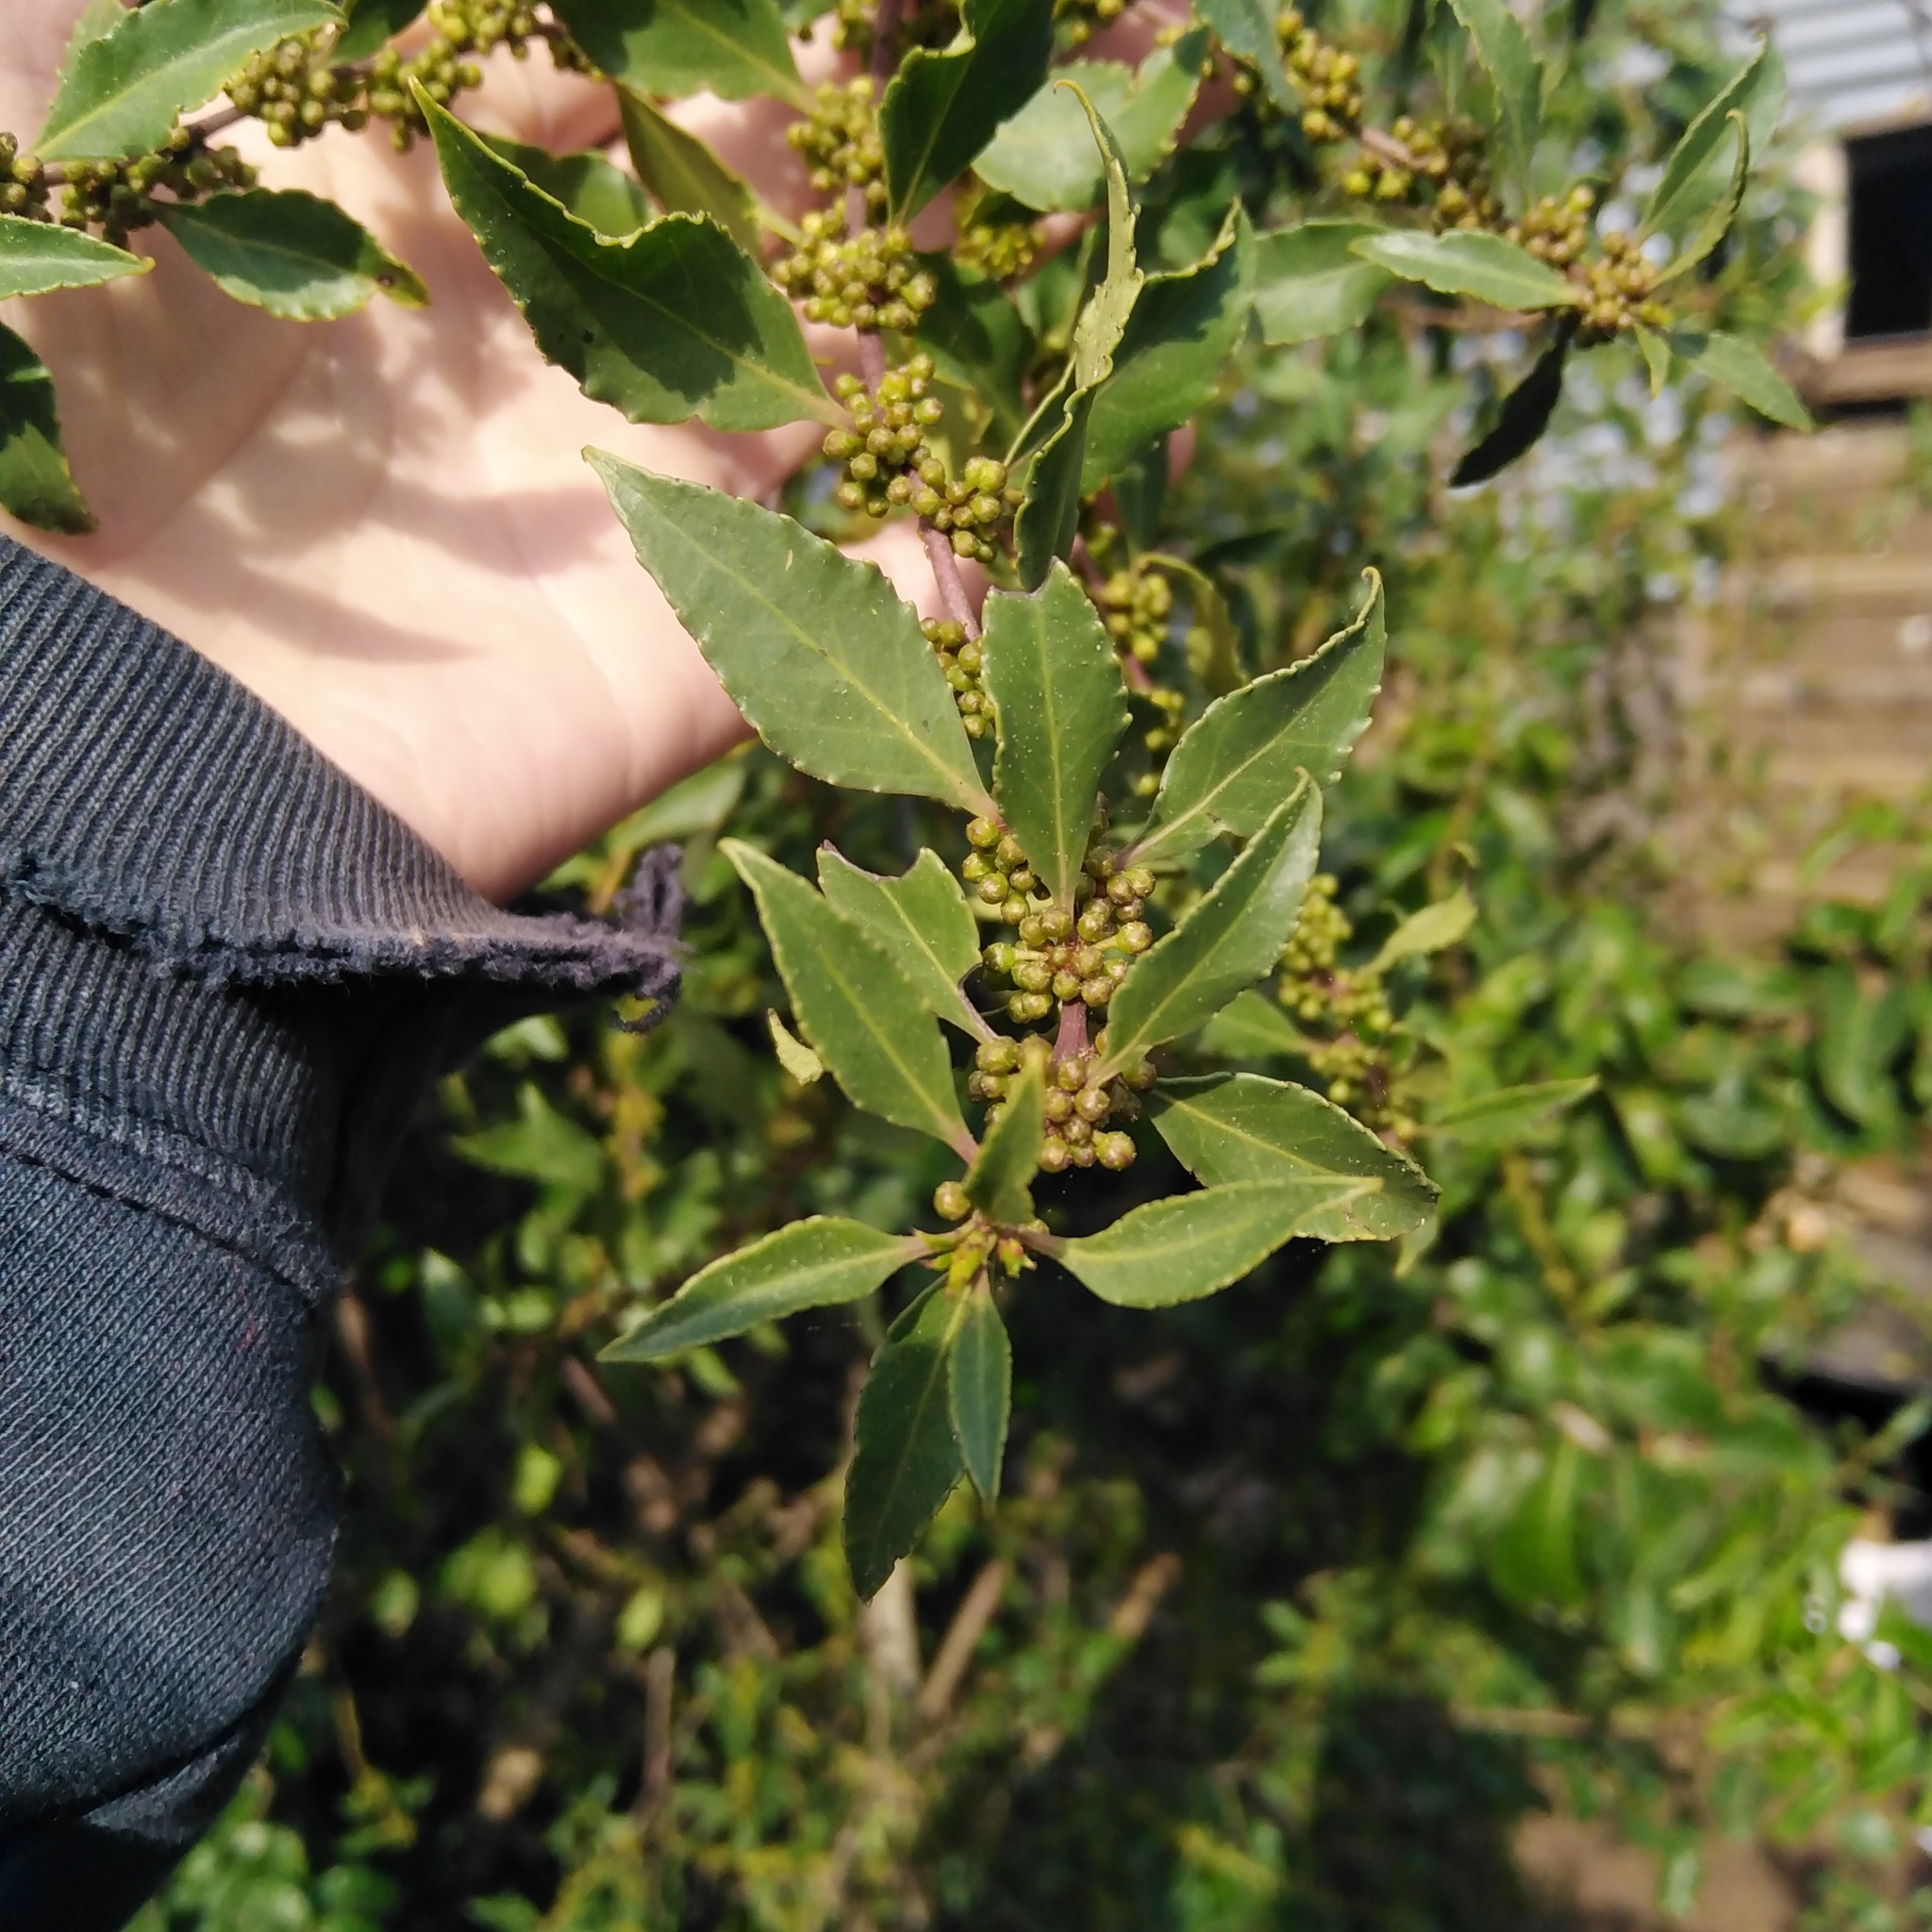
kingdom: Plantae
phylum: Tracheophyta
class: Magnoliopsida
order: Celastrales
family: Celastraceae
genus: Maytenus
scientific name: Maytenus boaria
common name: Mayten
